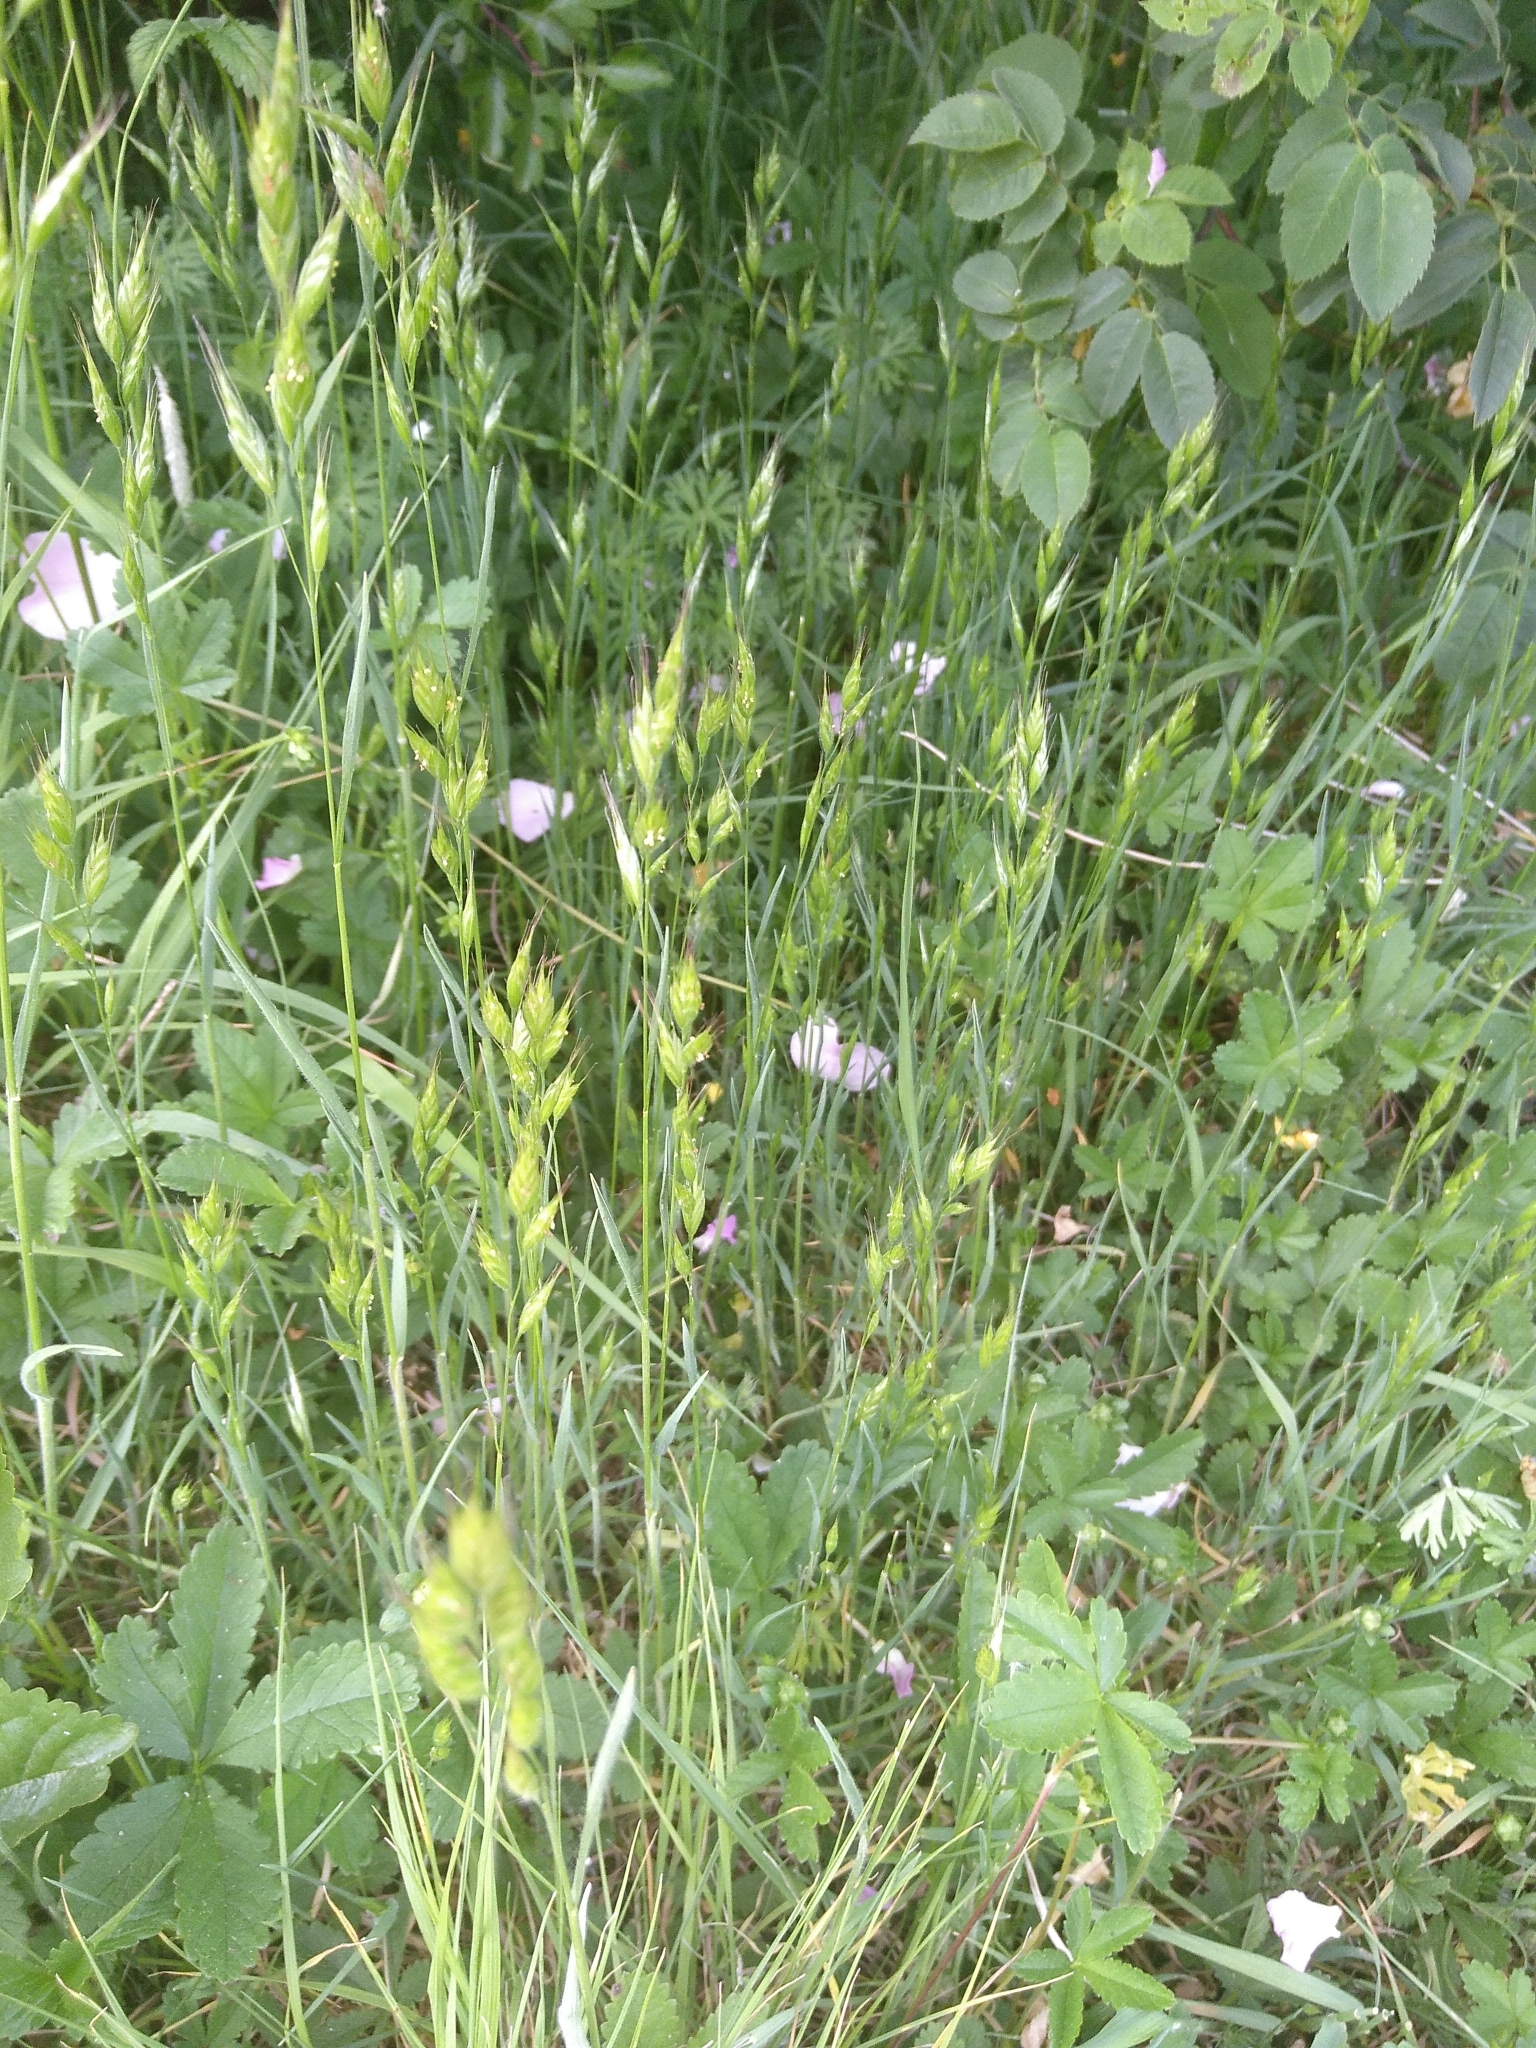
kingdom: Plantae
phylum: Tracheophyta
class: Liliopsida
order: Poales
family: Poaceae
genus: Bromus
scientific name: Bromus hordeaceus
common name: Soft brome
